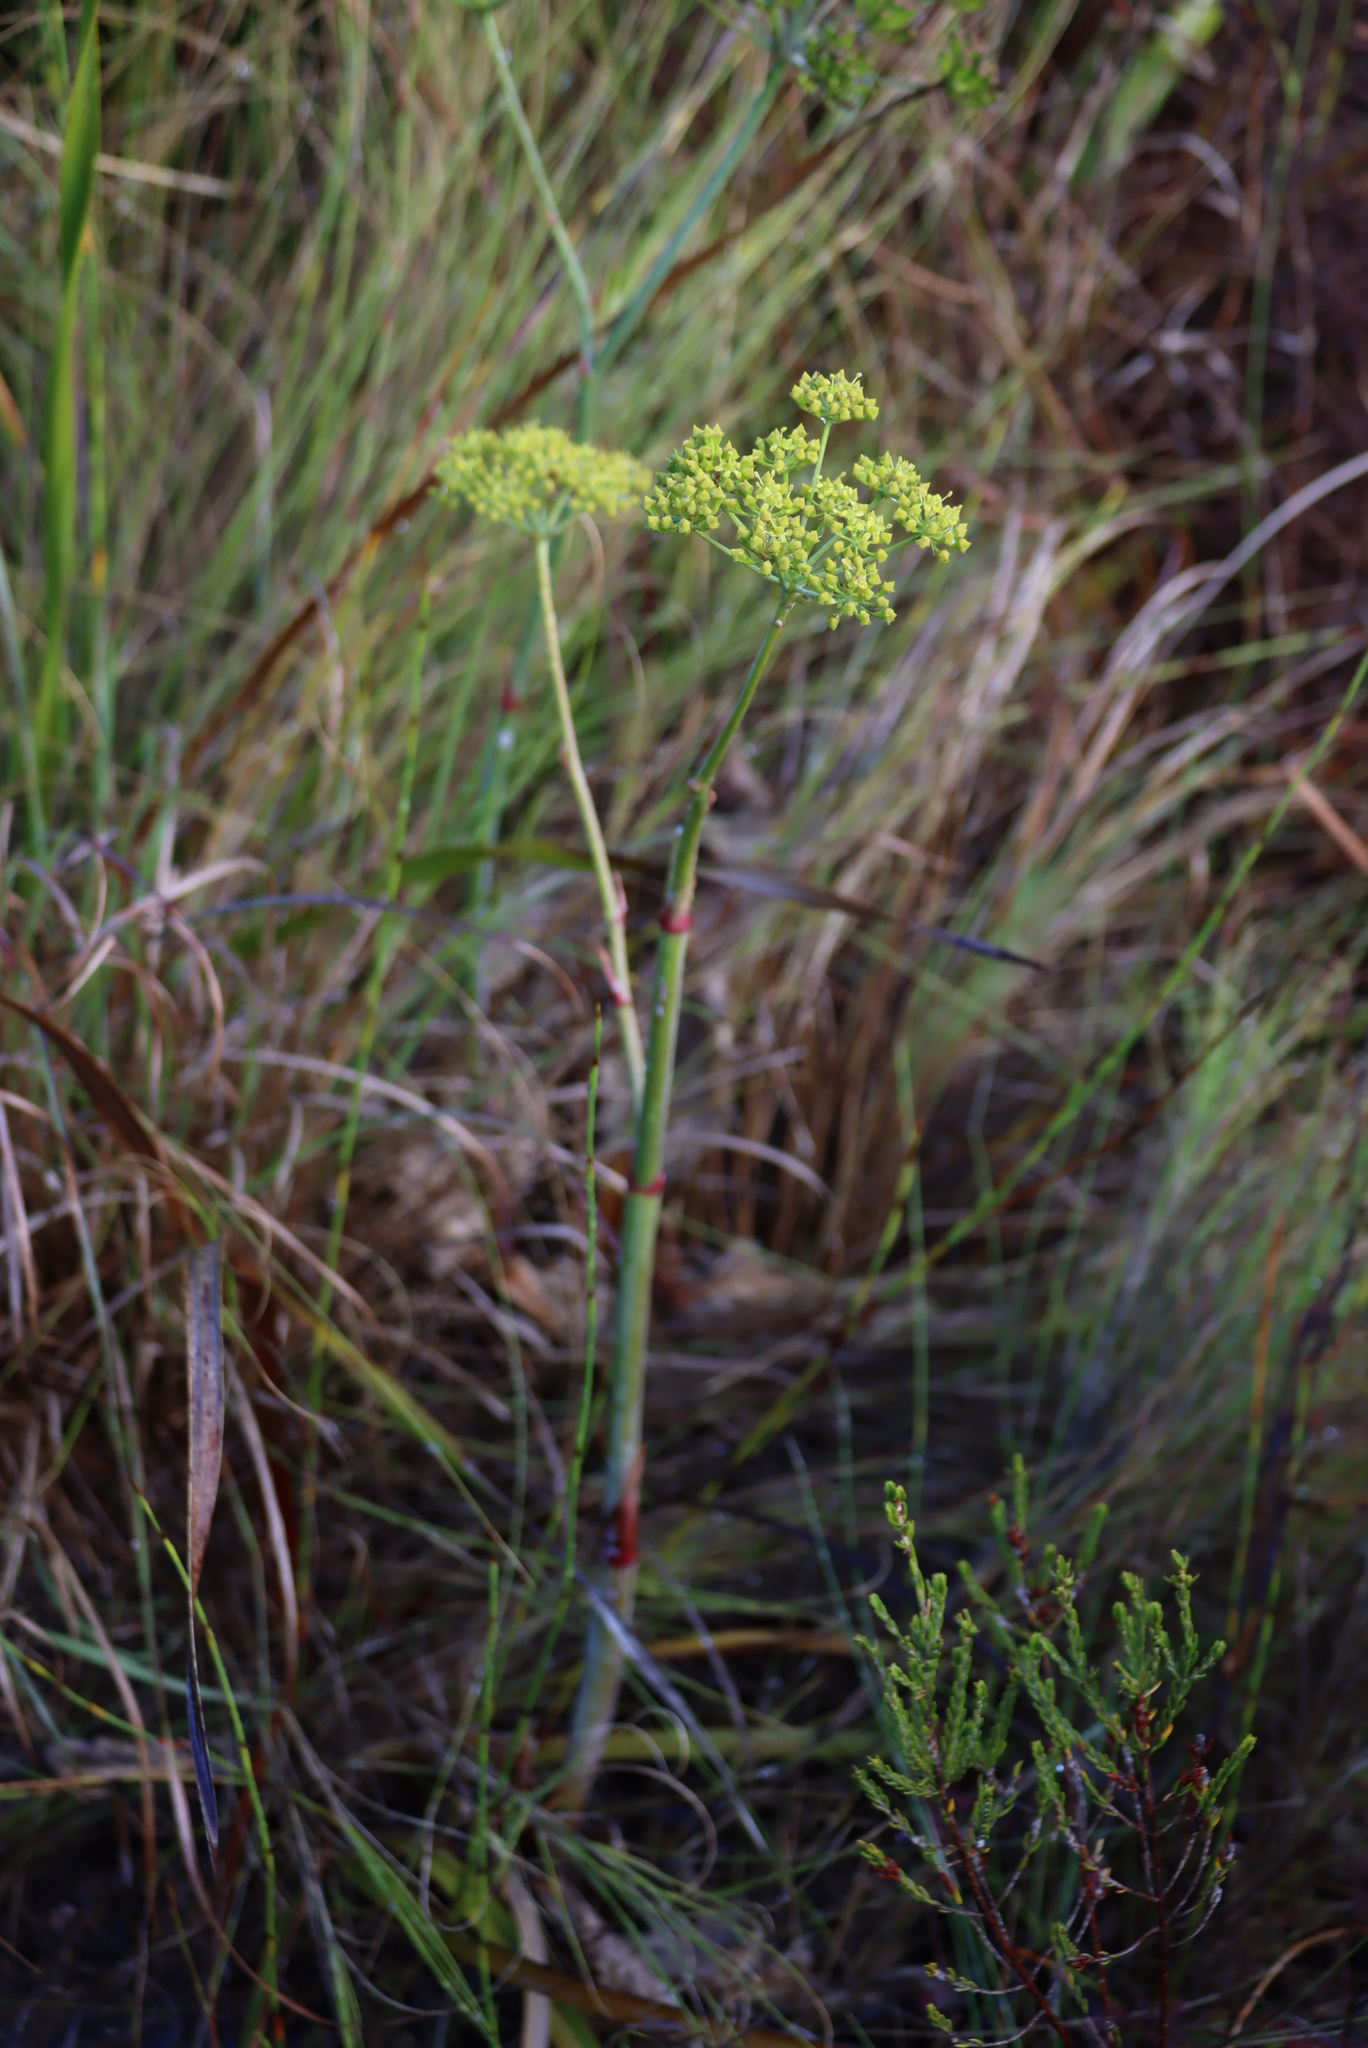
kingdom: Plantae
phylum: Tracheophyta
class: Magnoliopsida
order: Apiales
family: Apiaceae
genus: Lichtensteinia
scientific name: Lichtensteinia lacera
